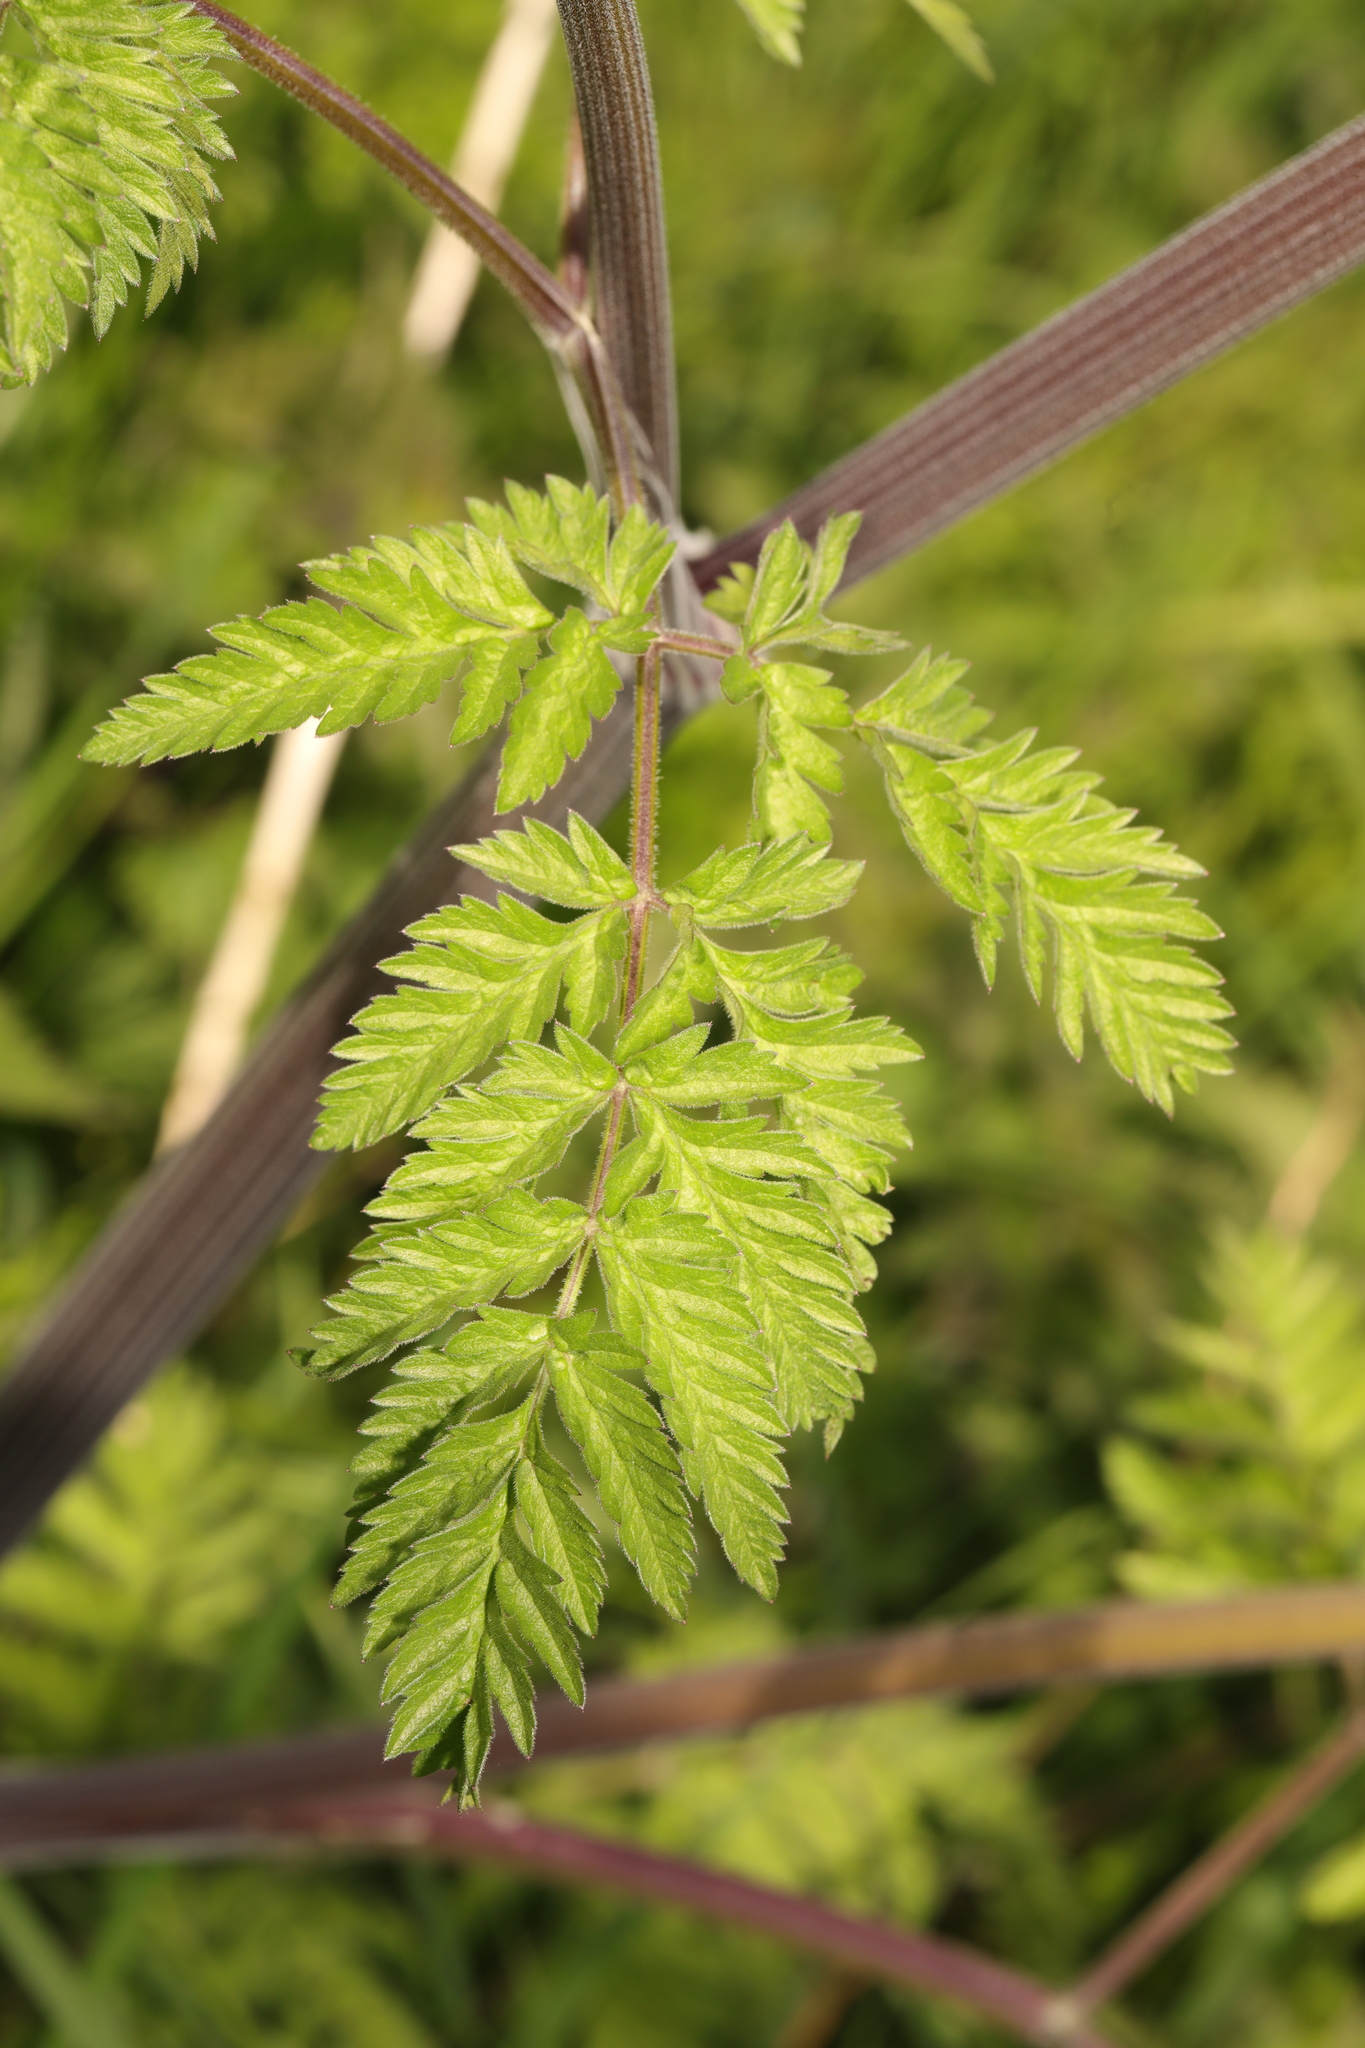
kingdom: Plantae
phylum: Tracheophyta
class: Magnoliopsida
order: Apiales
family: Apiaceae
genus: Anthriscus
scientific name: Anthriscus sylvestris
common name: Cow parsley
